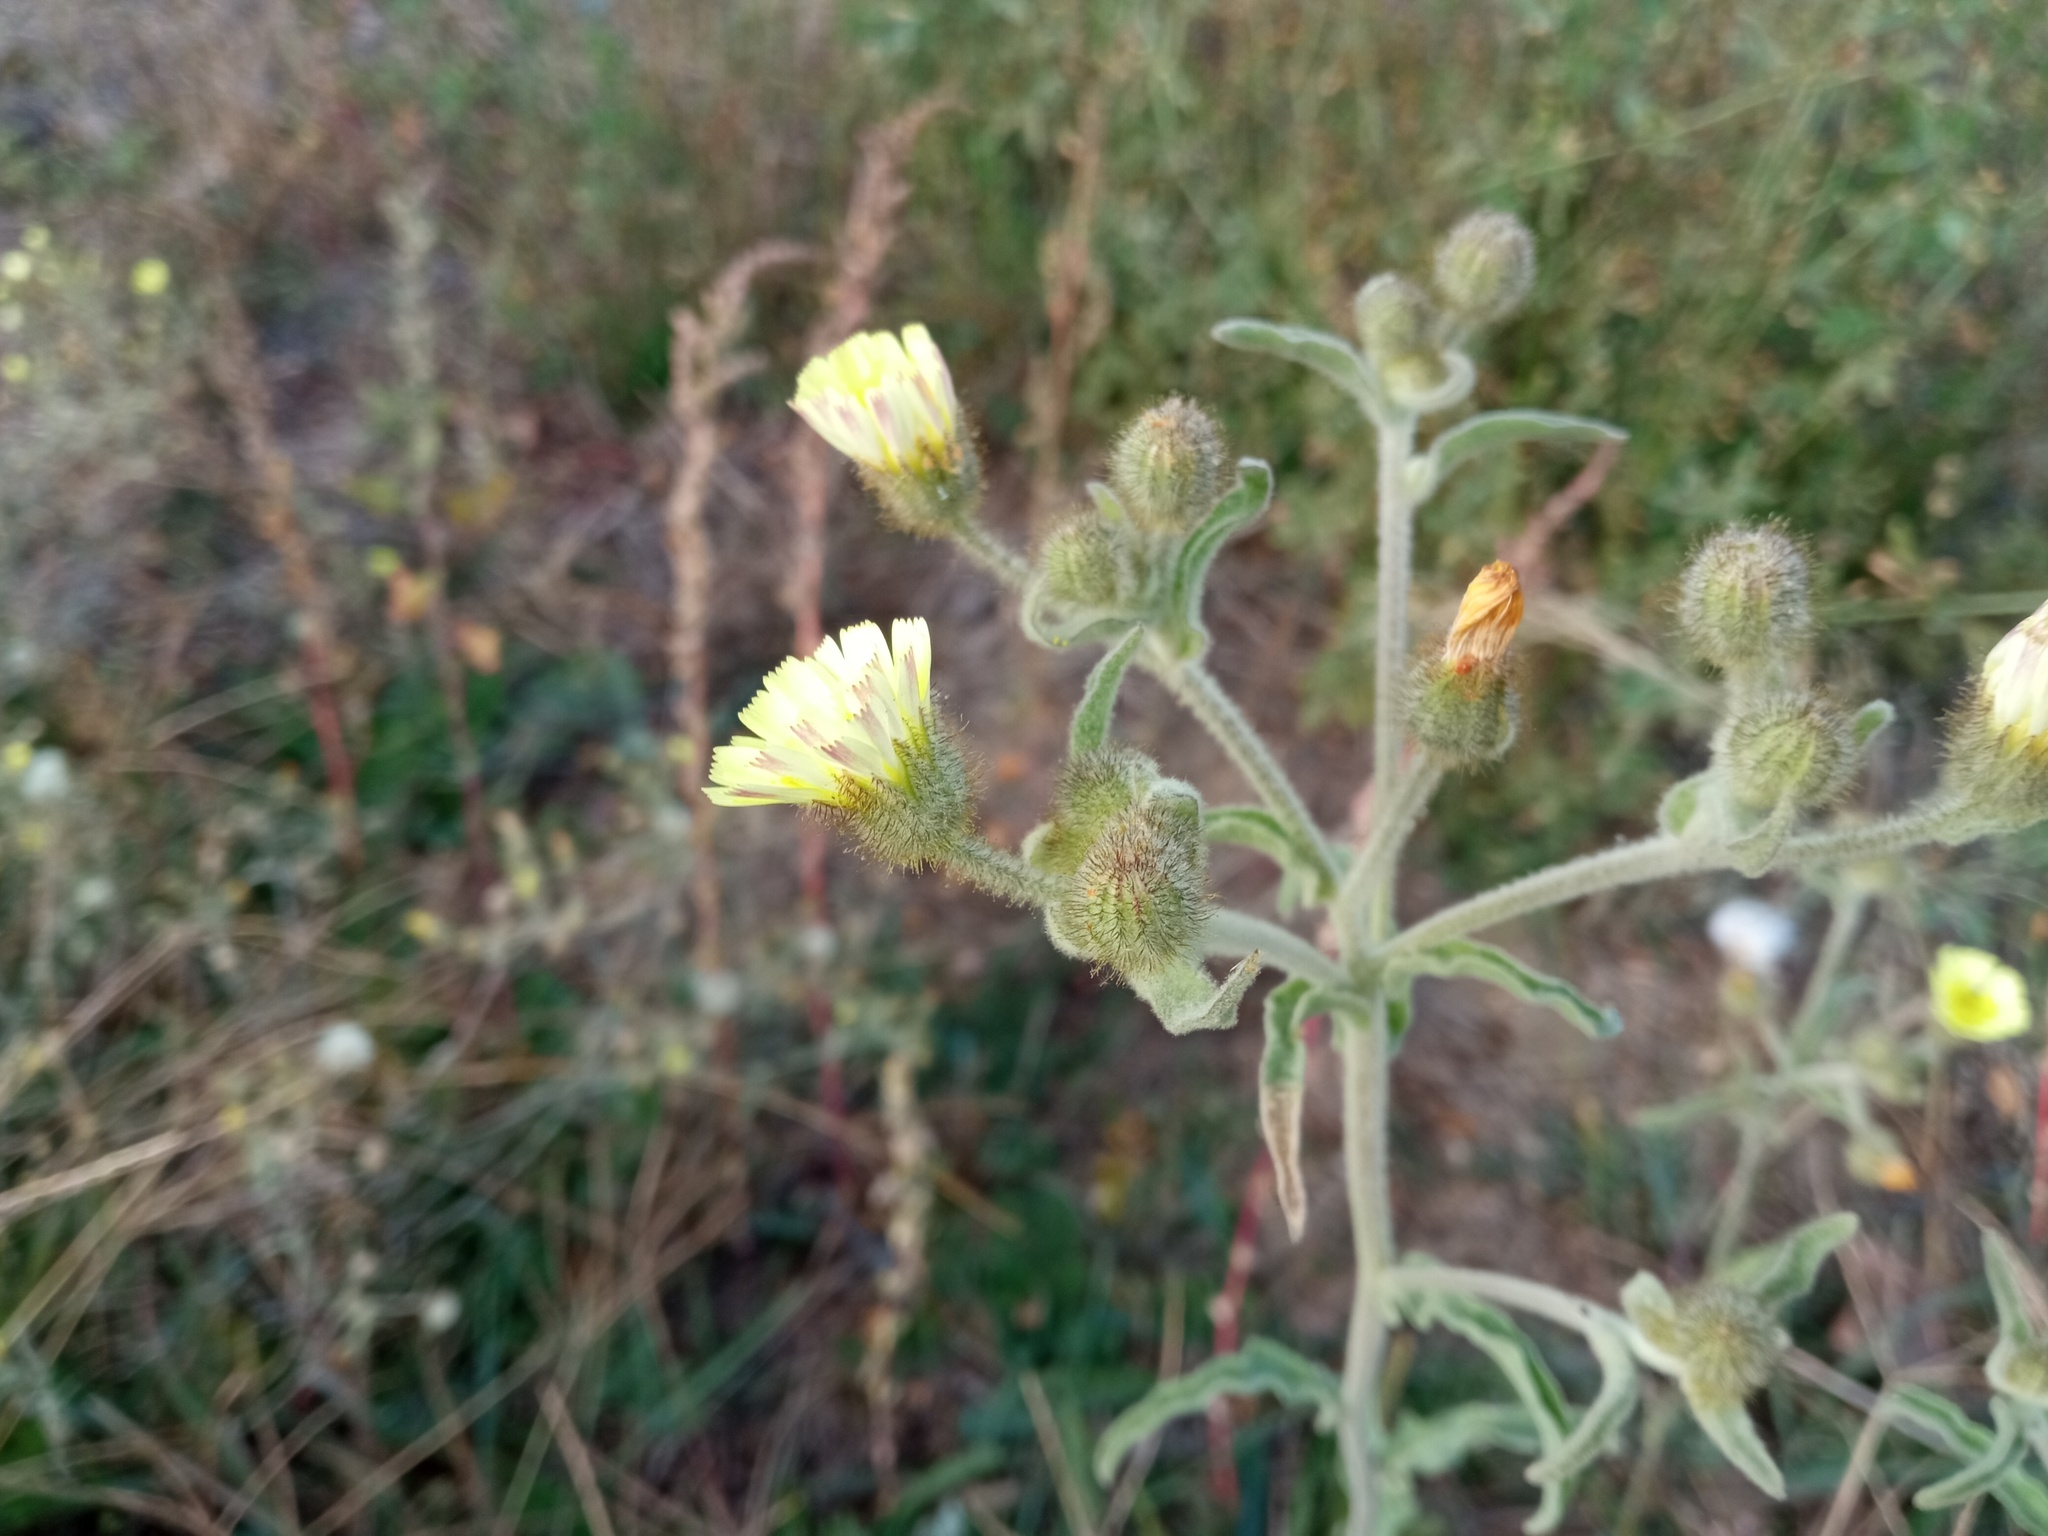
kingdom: Plantae
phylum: Tracheophyta
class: Magnoliopsida
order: Asterales
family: Asteraceae
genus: Andryala
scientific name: Andryala integrifolia
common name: Common andryala
